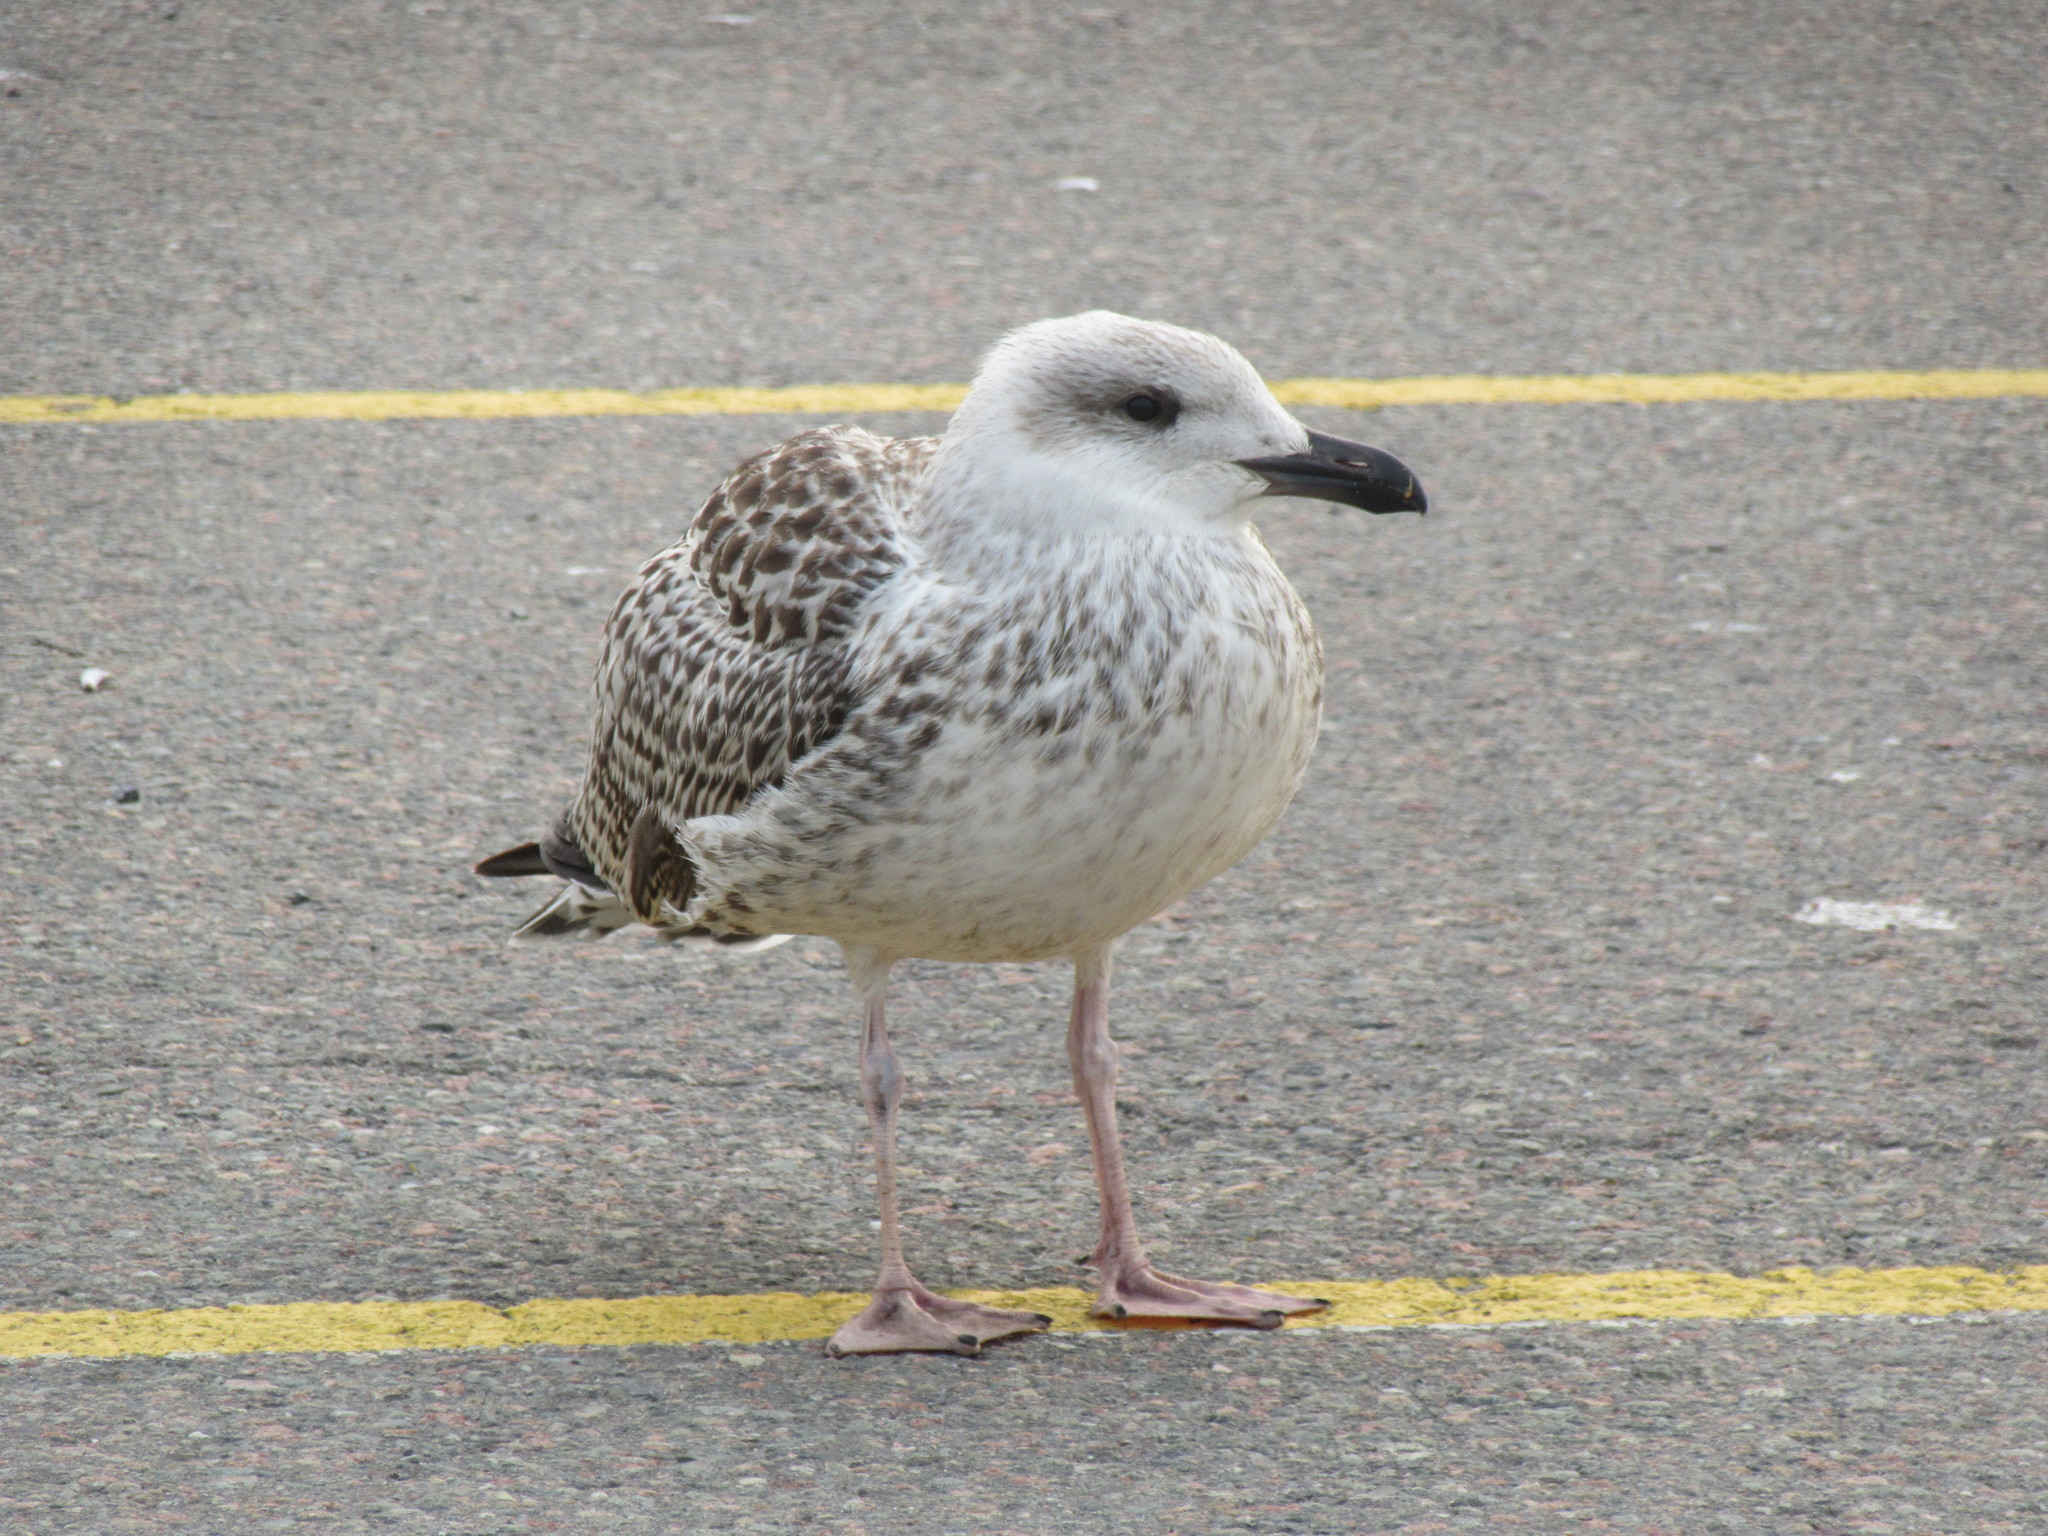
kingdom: Animalia
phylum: Chordata
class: Aves
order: Charadriiformes
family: Laridae
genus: Larus
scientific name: Larus marinus
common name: Great black-backed gull
